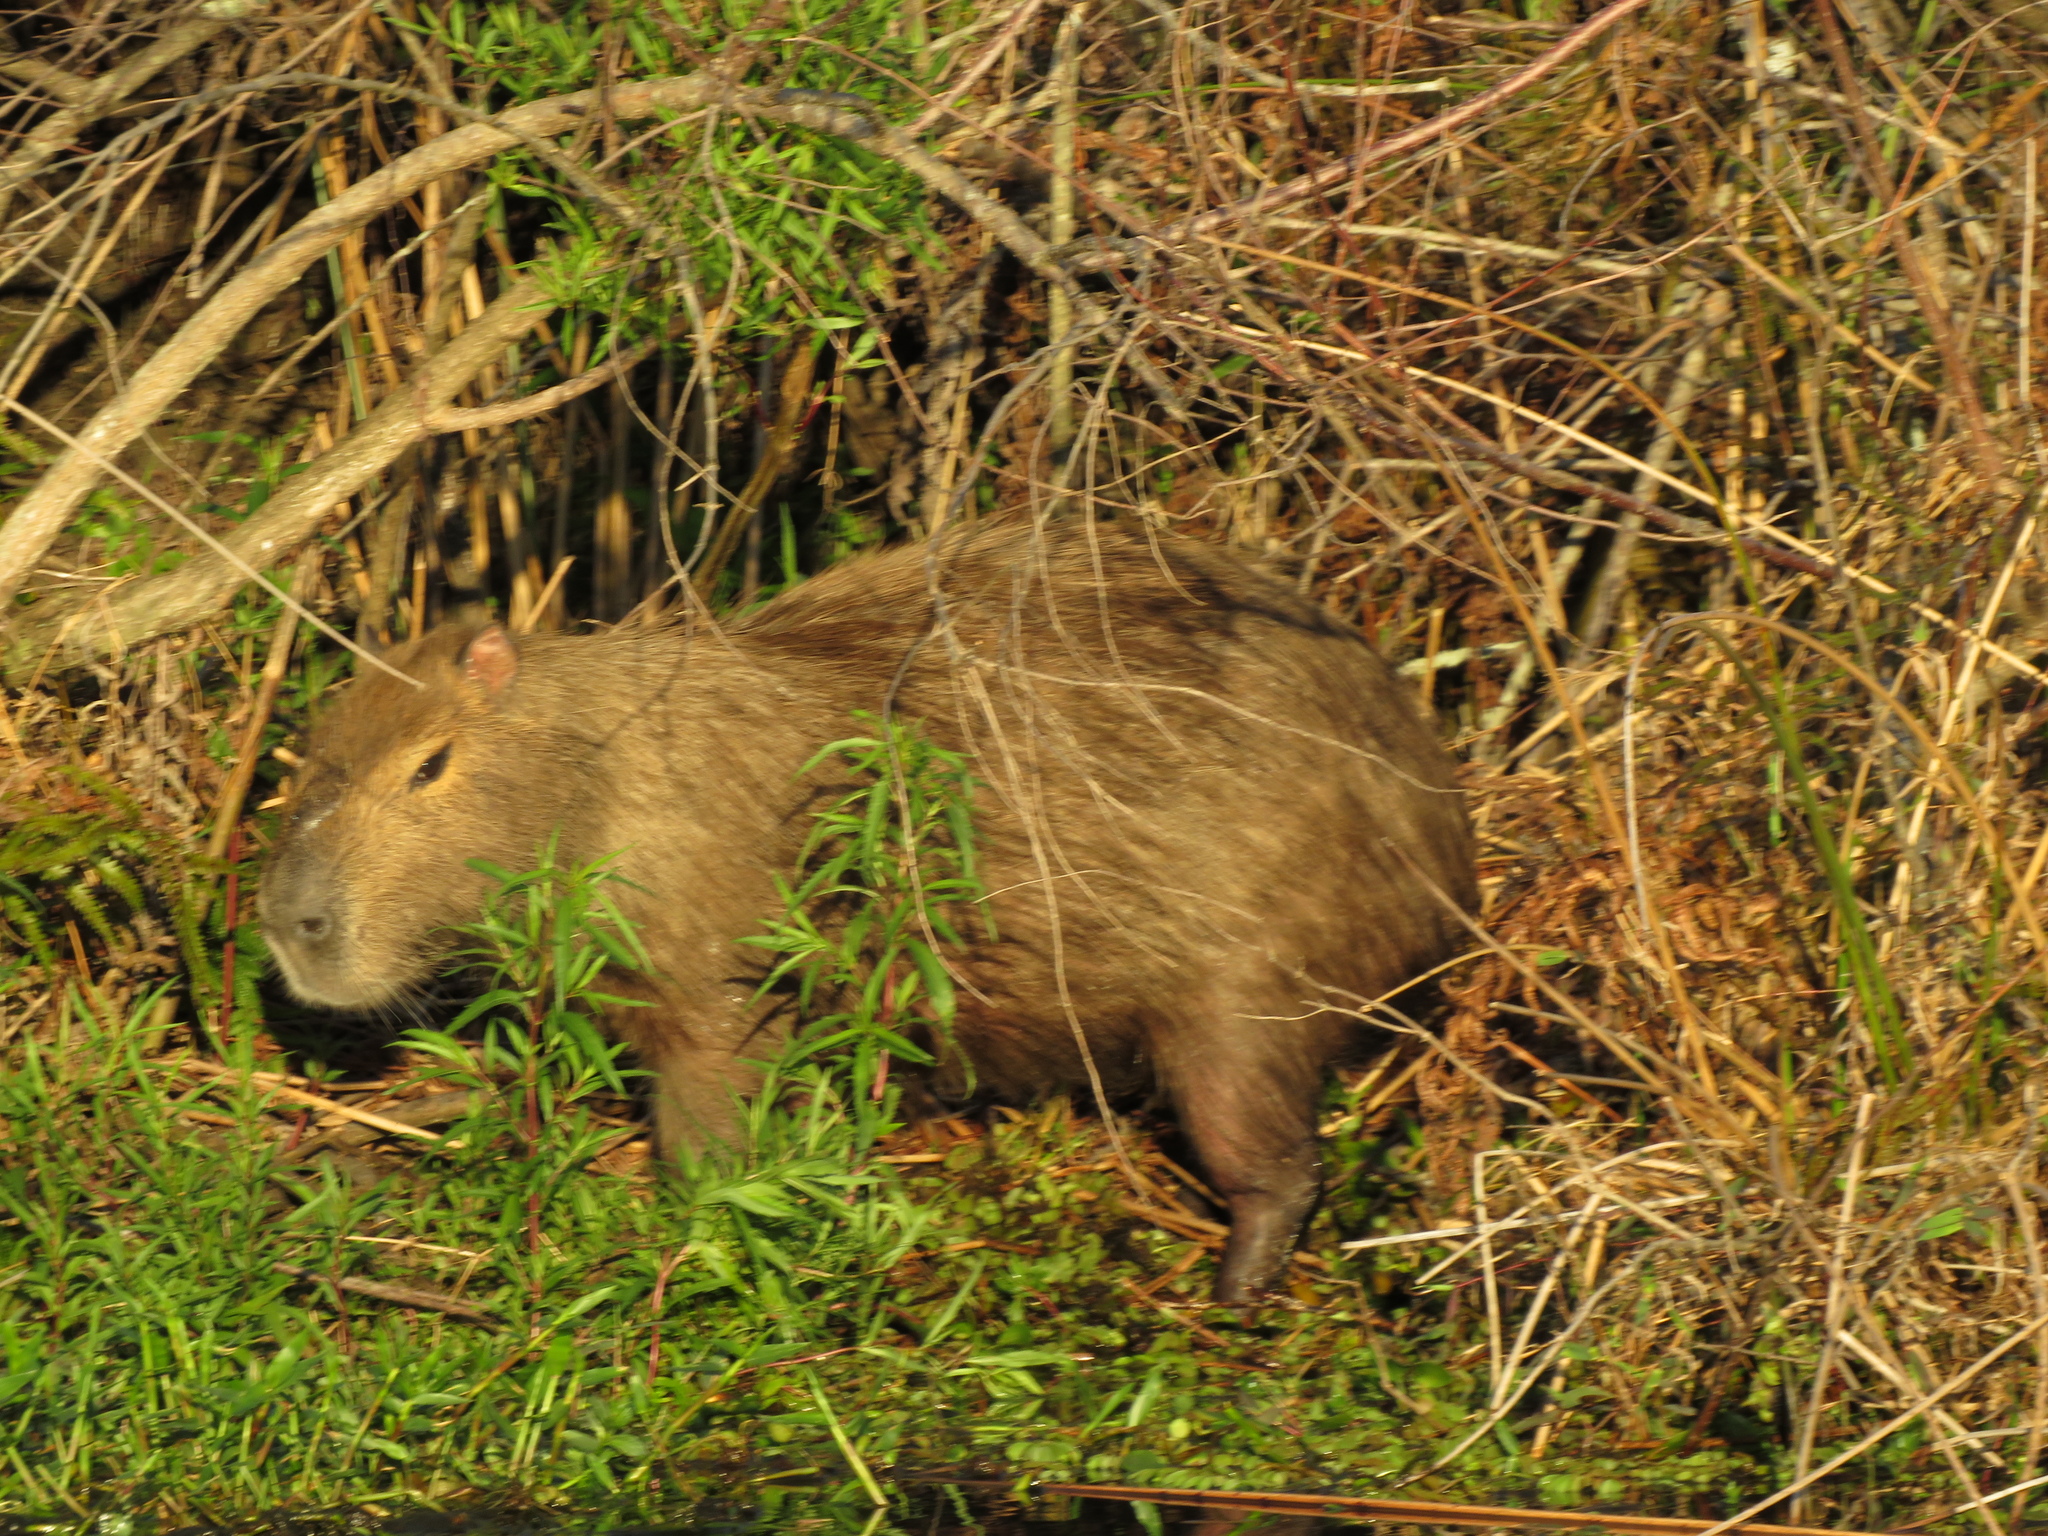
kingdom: Animalia
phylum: Chordata
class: Mammalia
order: Rodentia
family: Caviidae
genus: Hydrochoerus
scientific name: Hydrochoerus hydrochaeris
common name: Capybara
